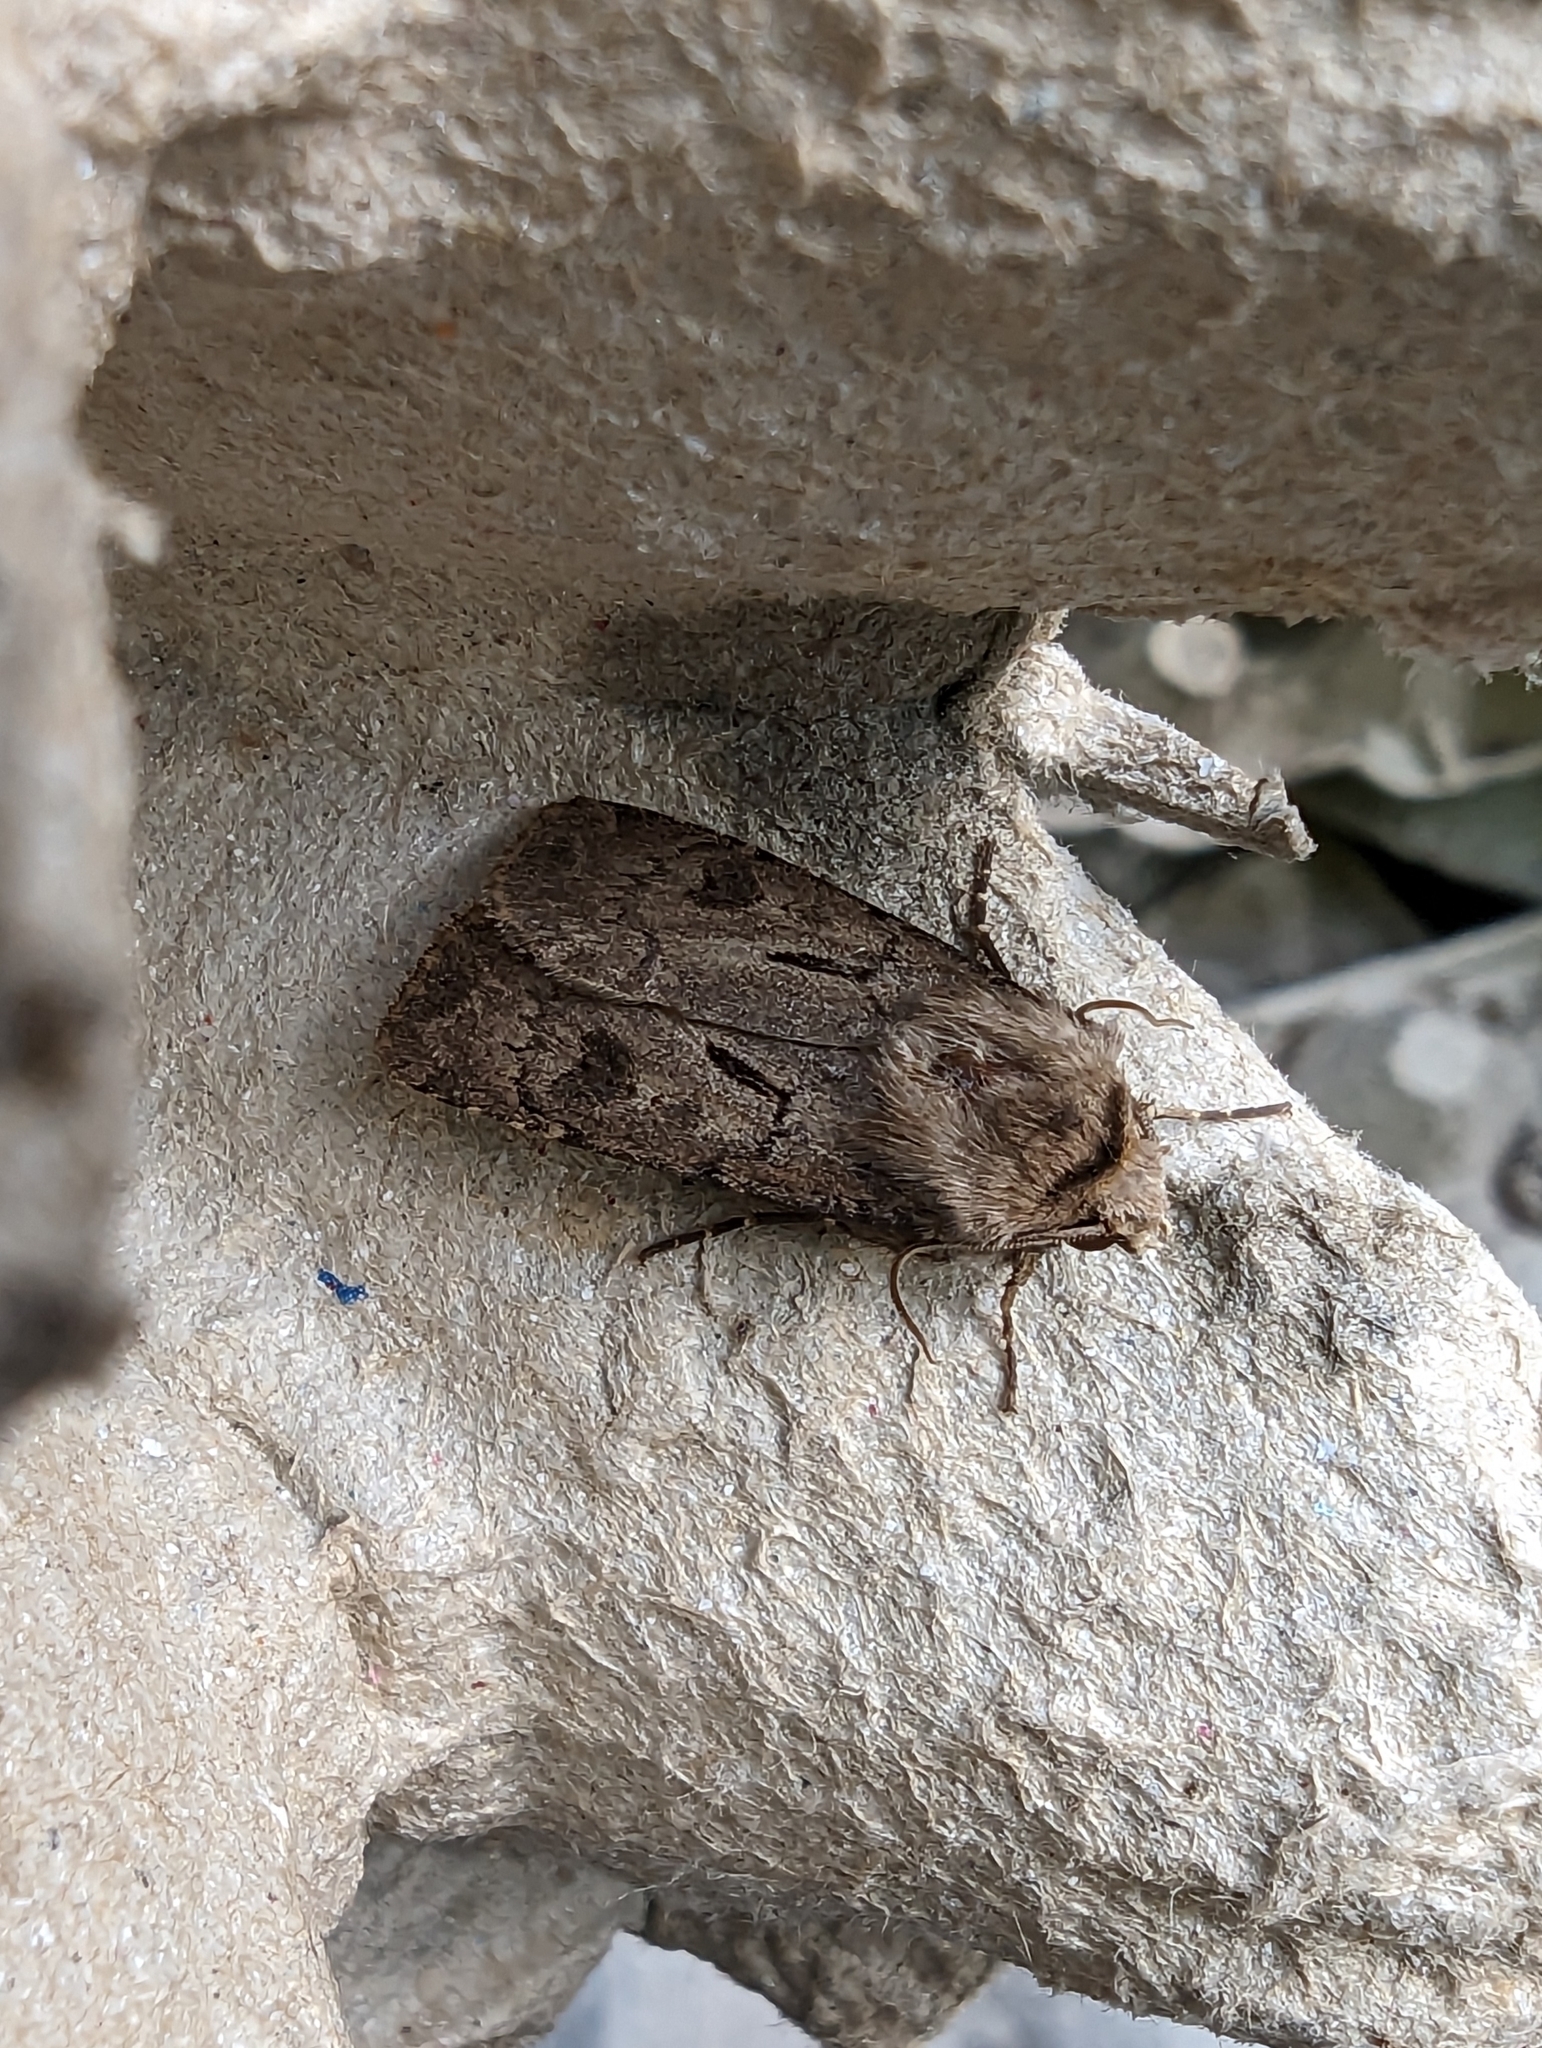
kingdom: Animalia
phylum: Arthropoda
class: Insecta
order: Lepidoptera
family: Noctuidae
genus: Agrotis
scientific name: Agrotis exclamationis
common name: Heart and dart
